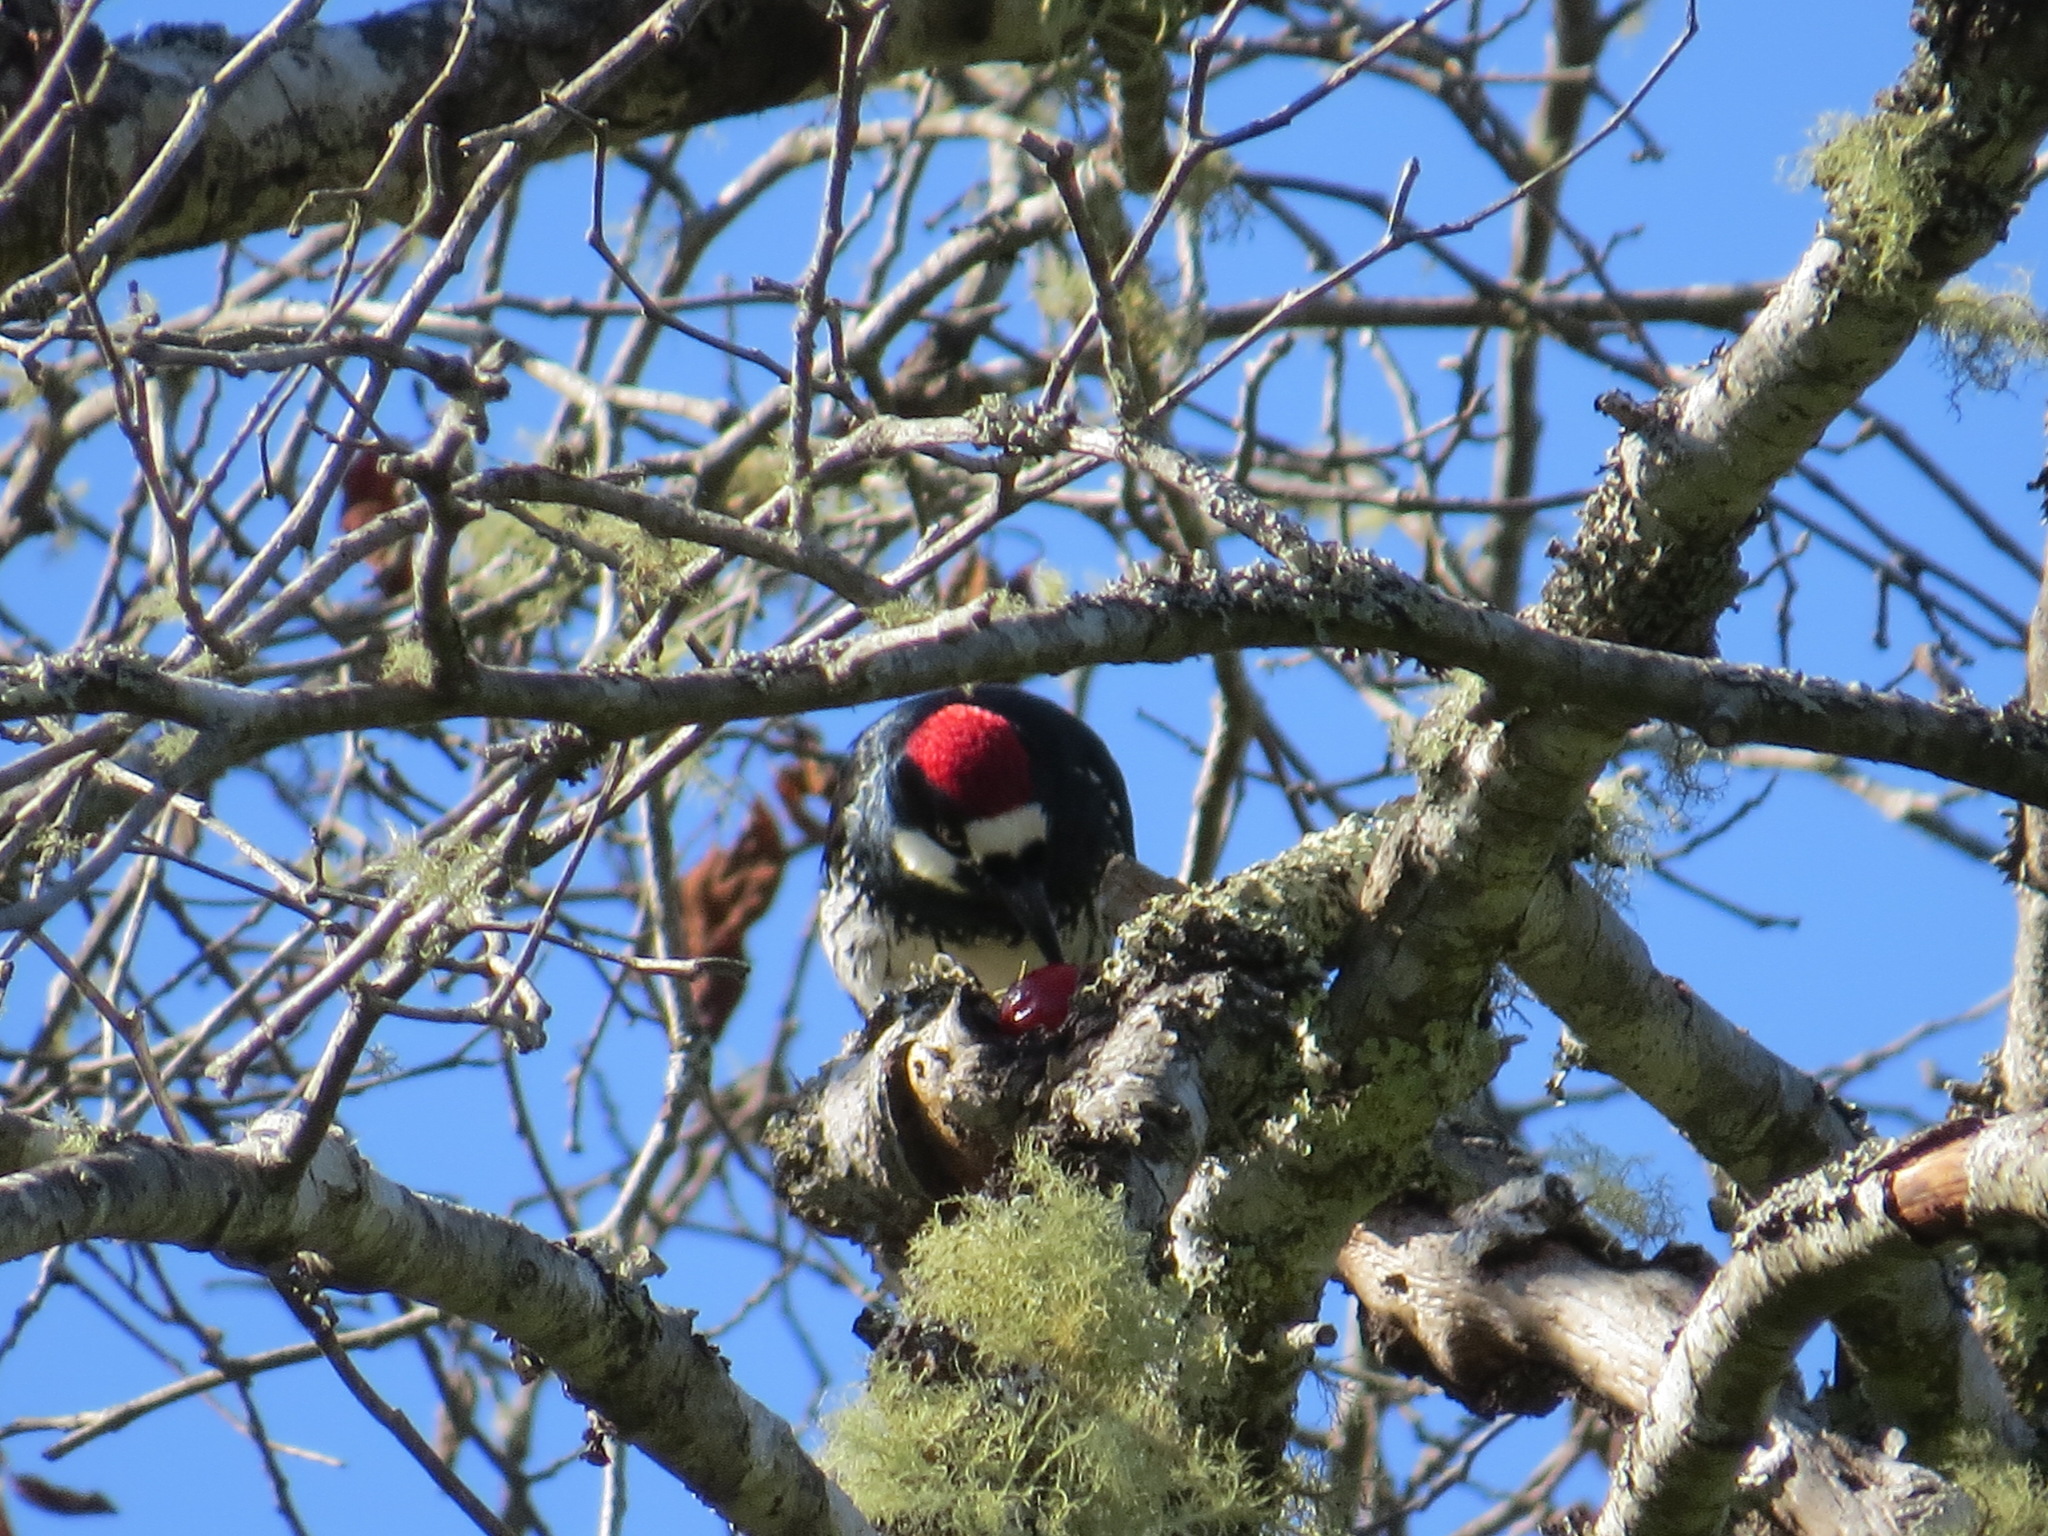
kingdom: Animalia
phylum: Chordata
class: Aves
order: Piciformes
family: Picidae
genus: Melanerpes
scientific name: Melanerpes formicivorus
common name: Acorn woodpecker
